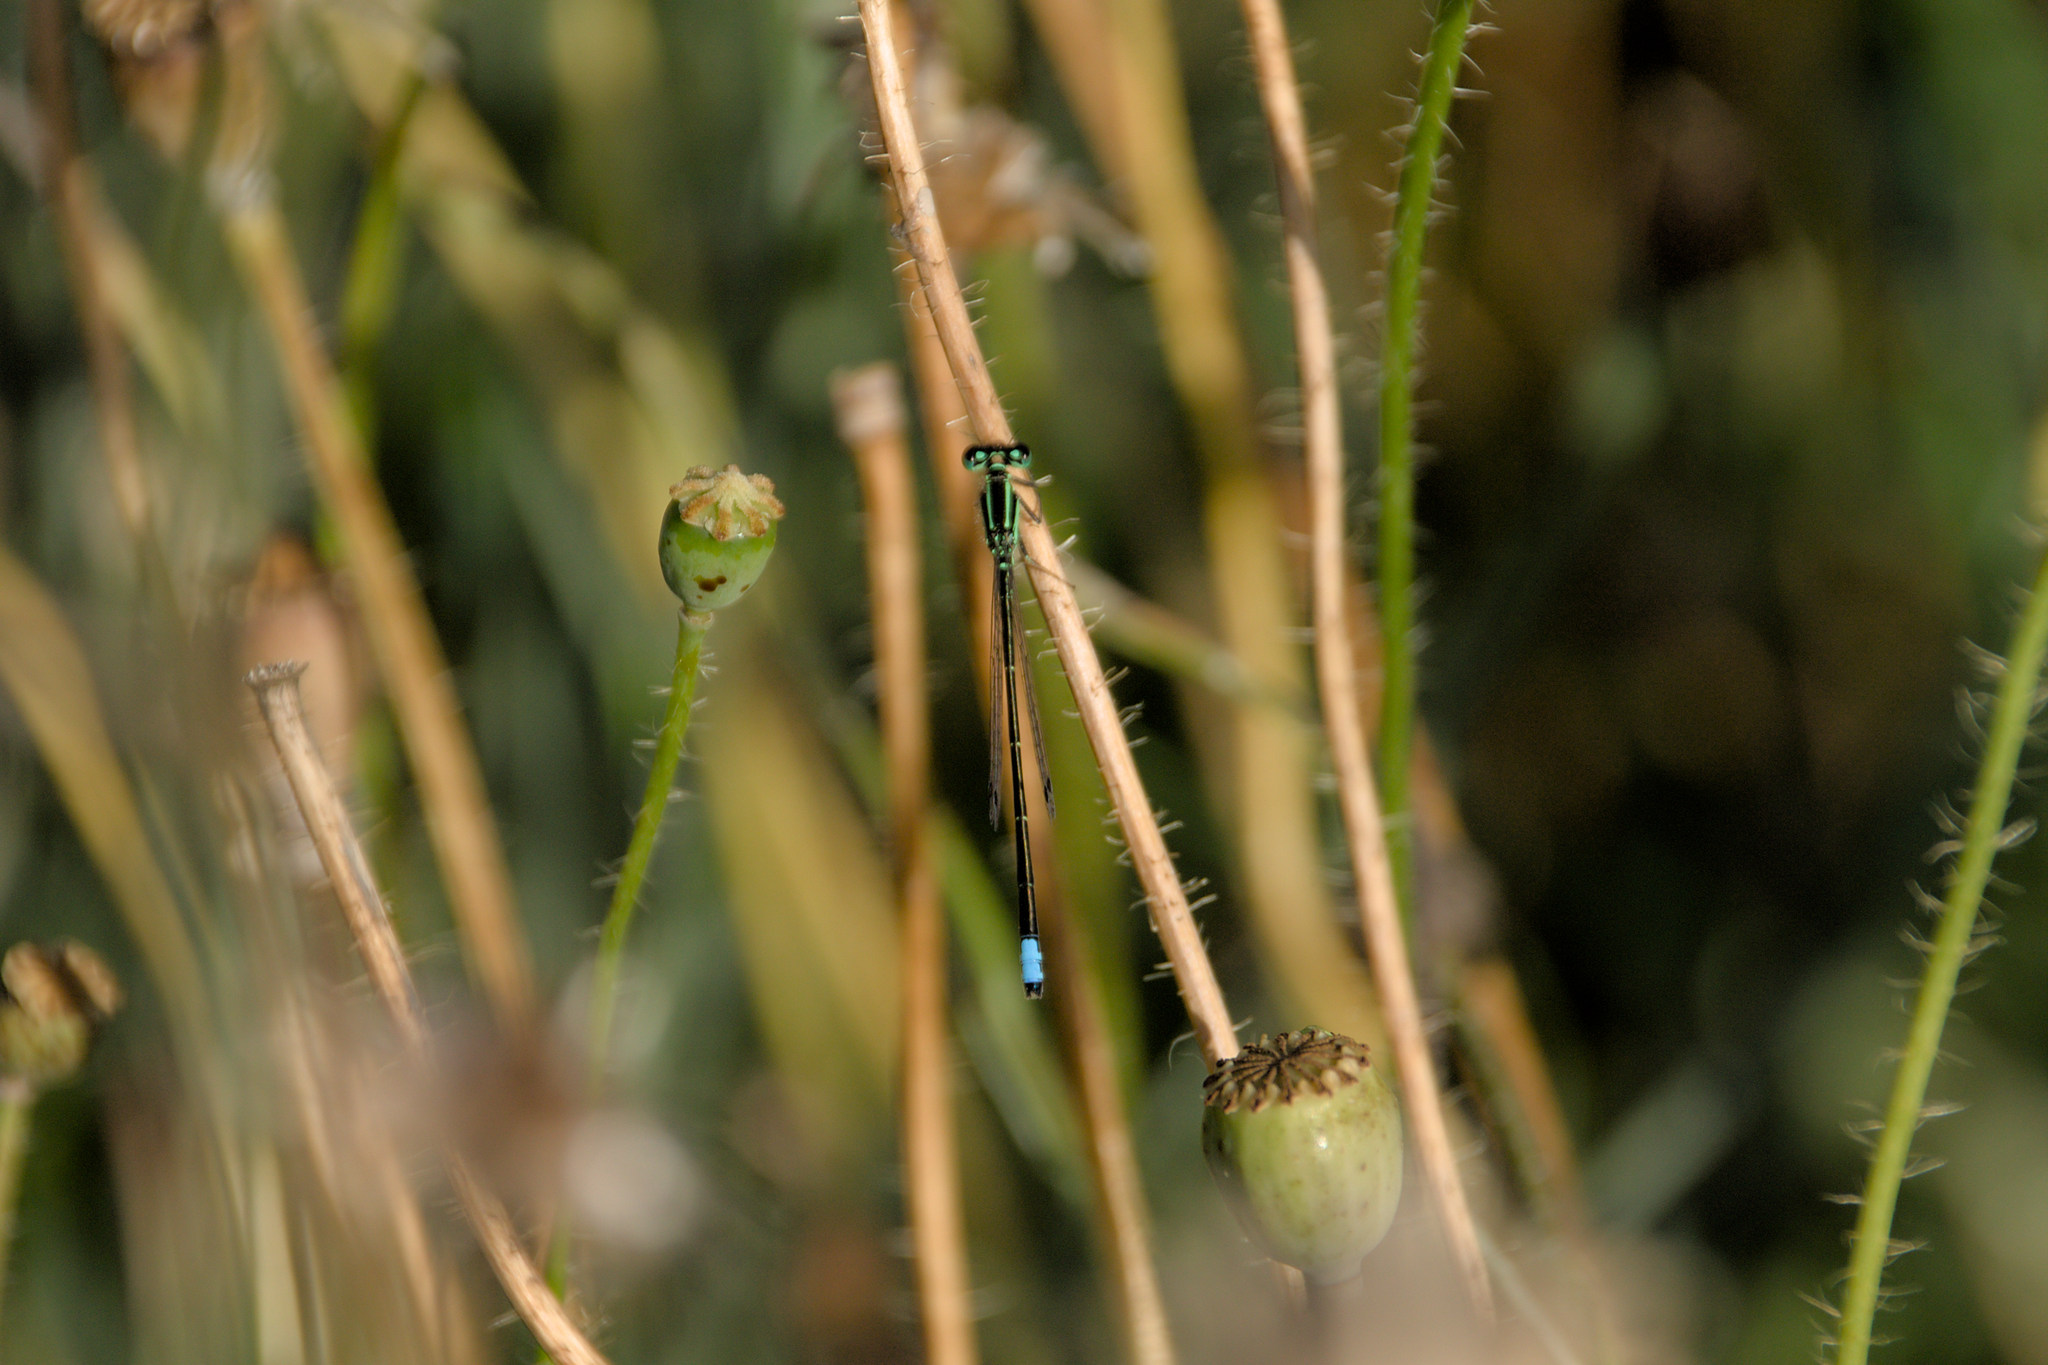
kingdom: Animalia
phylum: Arthropoda
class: Insecta
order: Odonata
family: Coenagrionidae
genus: Ischnura
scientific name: Ischnura verticalis
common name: Eastern forktail
